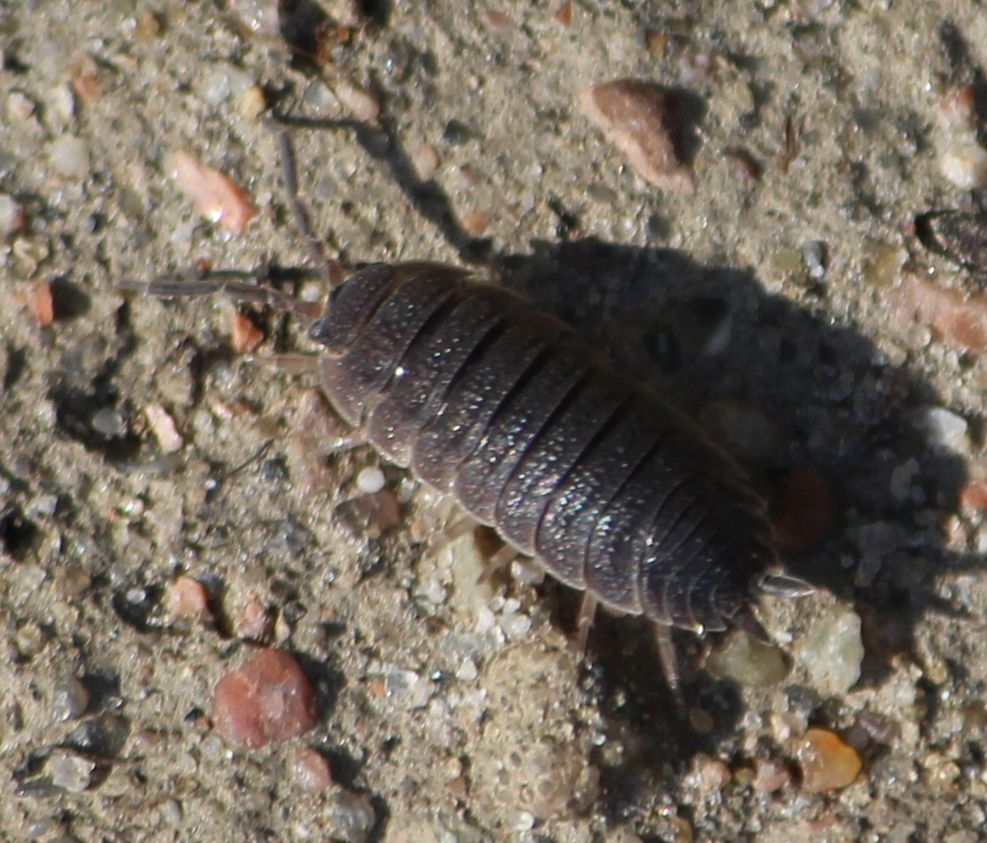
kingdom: Animalia
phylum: Arthropoda
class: Malacostraca
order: Isopoda
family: Porcellionidae
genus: Porcellio
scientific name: Porcellio scaber
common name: Common rough woodlouse
